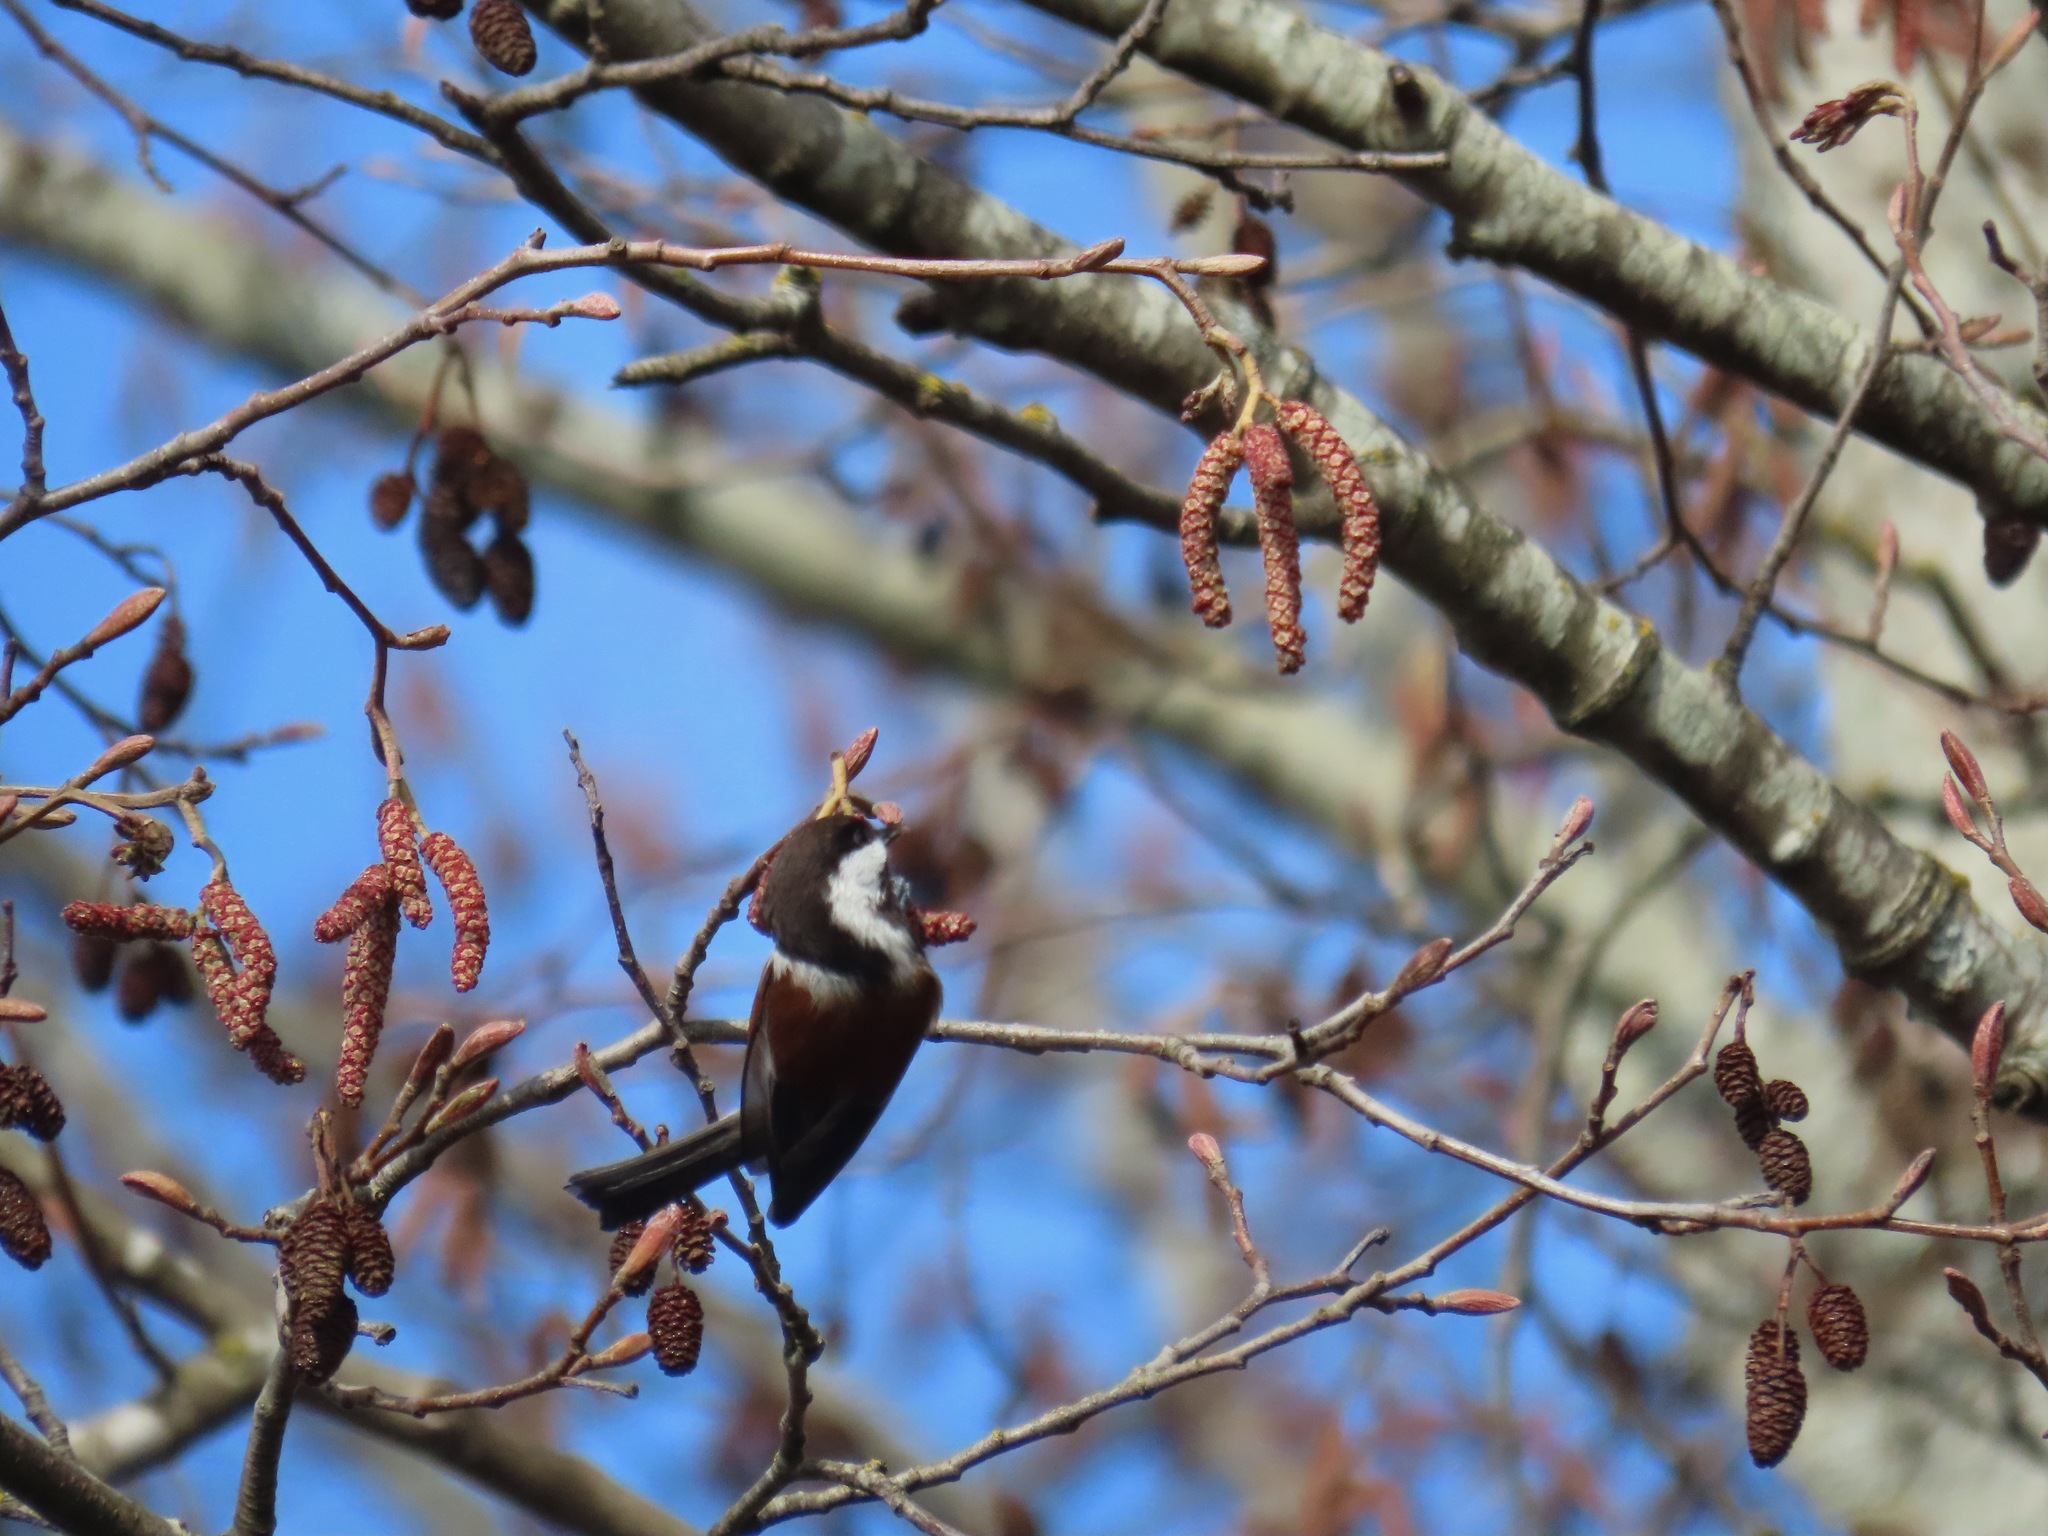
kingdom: Animalia
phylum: Chordata
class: Aves
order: Passeriformes
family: Paridae
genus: Poecile
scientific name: Poecile rufescens
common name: Chestnut-backed chickadee
